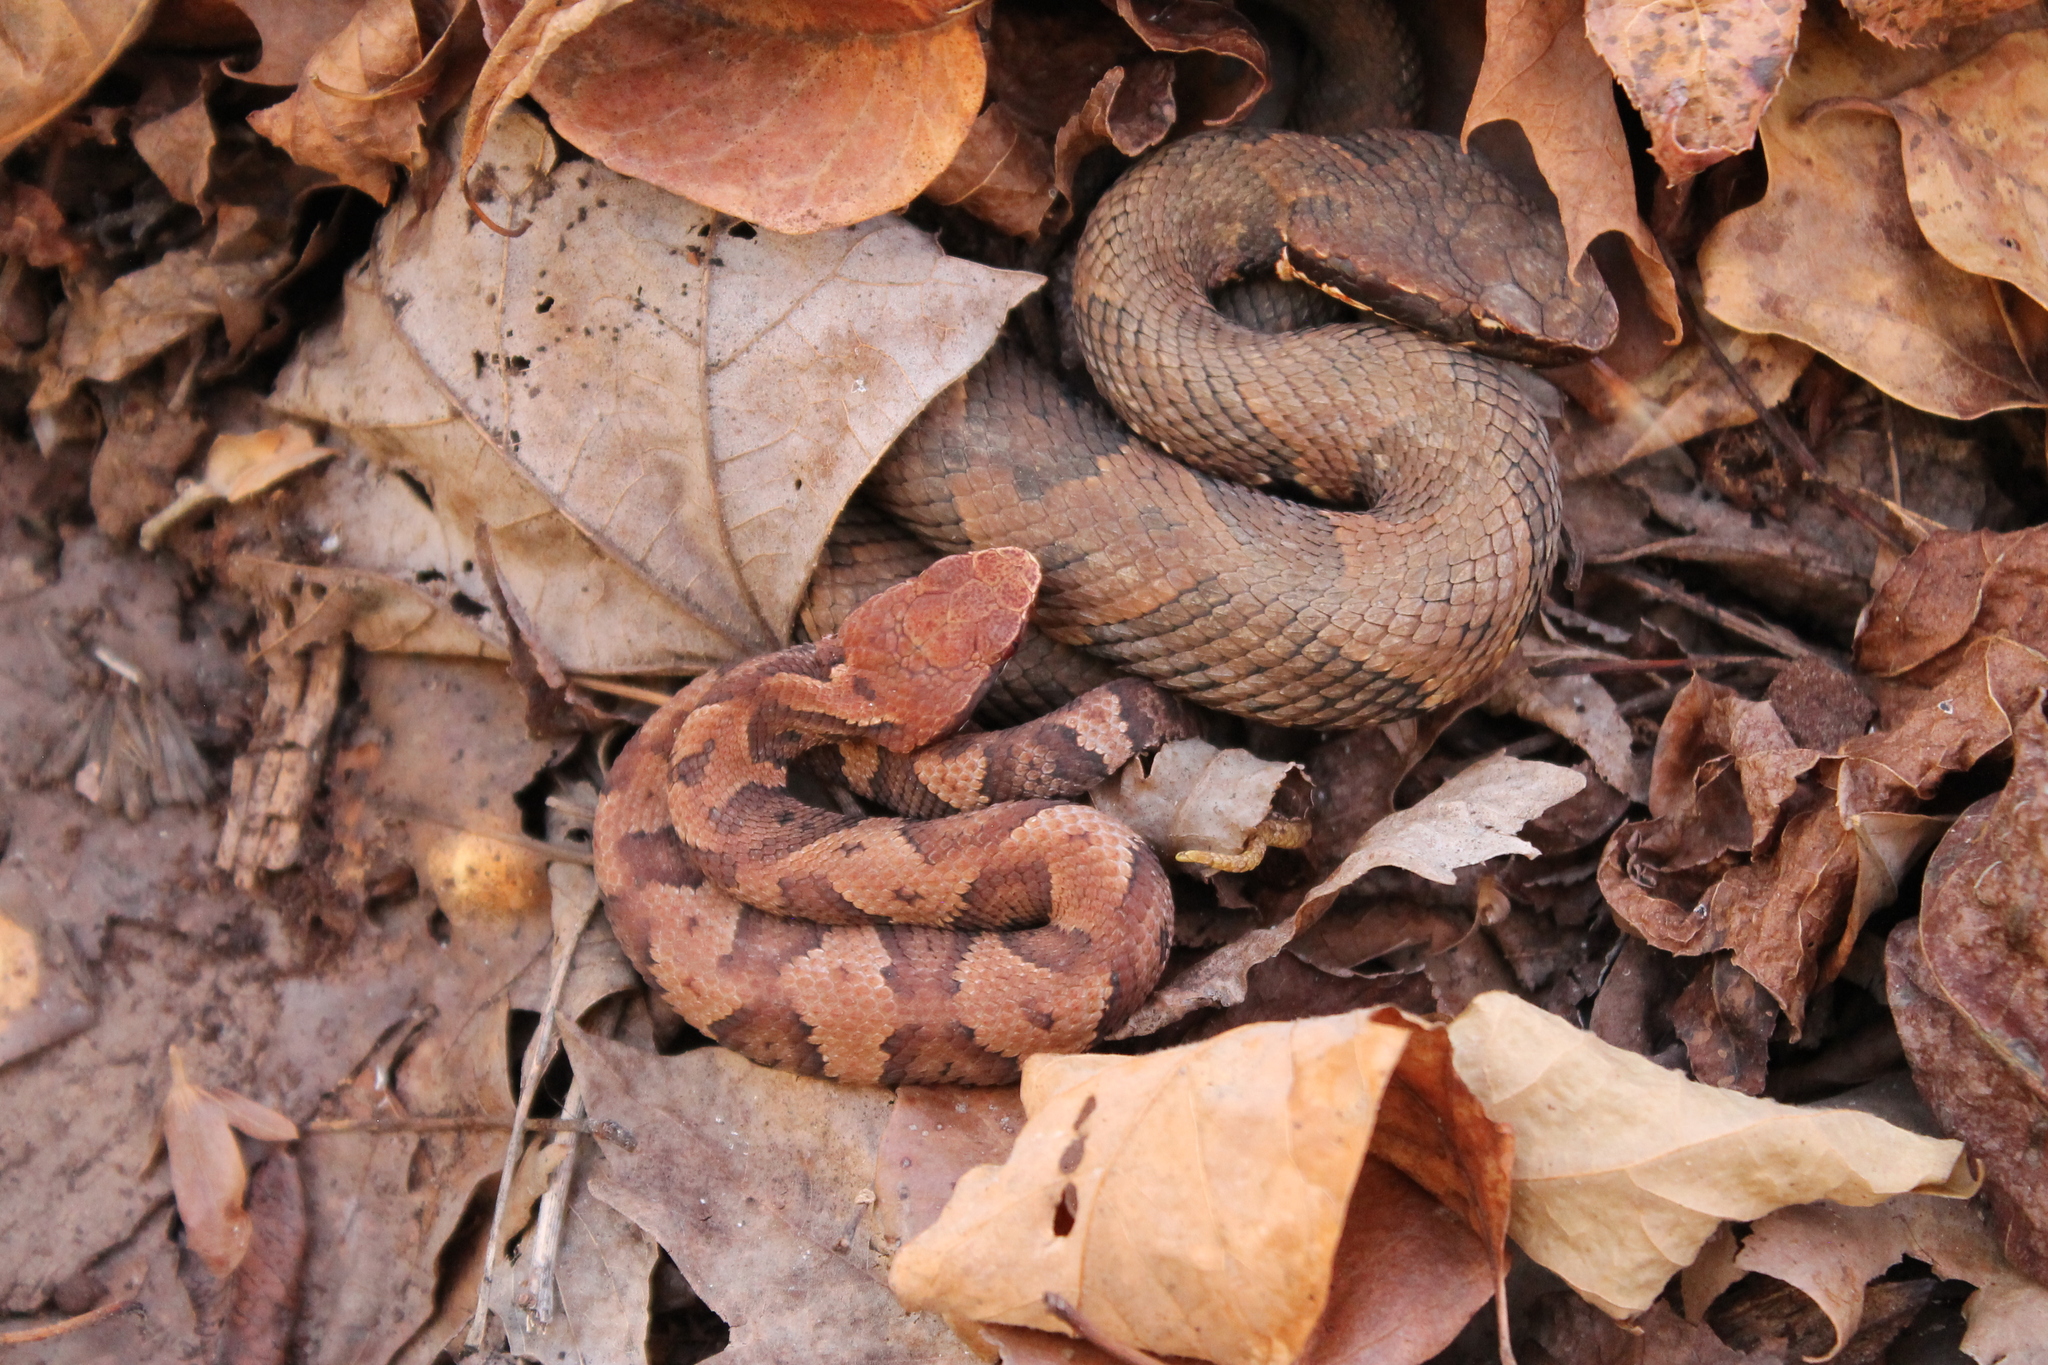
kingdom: Animalia
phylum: Chordata
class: Squamata
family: Viperidae
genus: Agkistrodon
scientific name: Agkistrodon piscivorus
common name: Cottonmouth
